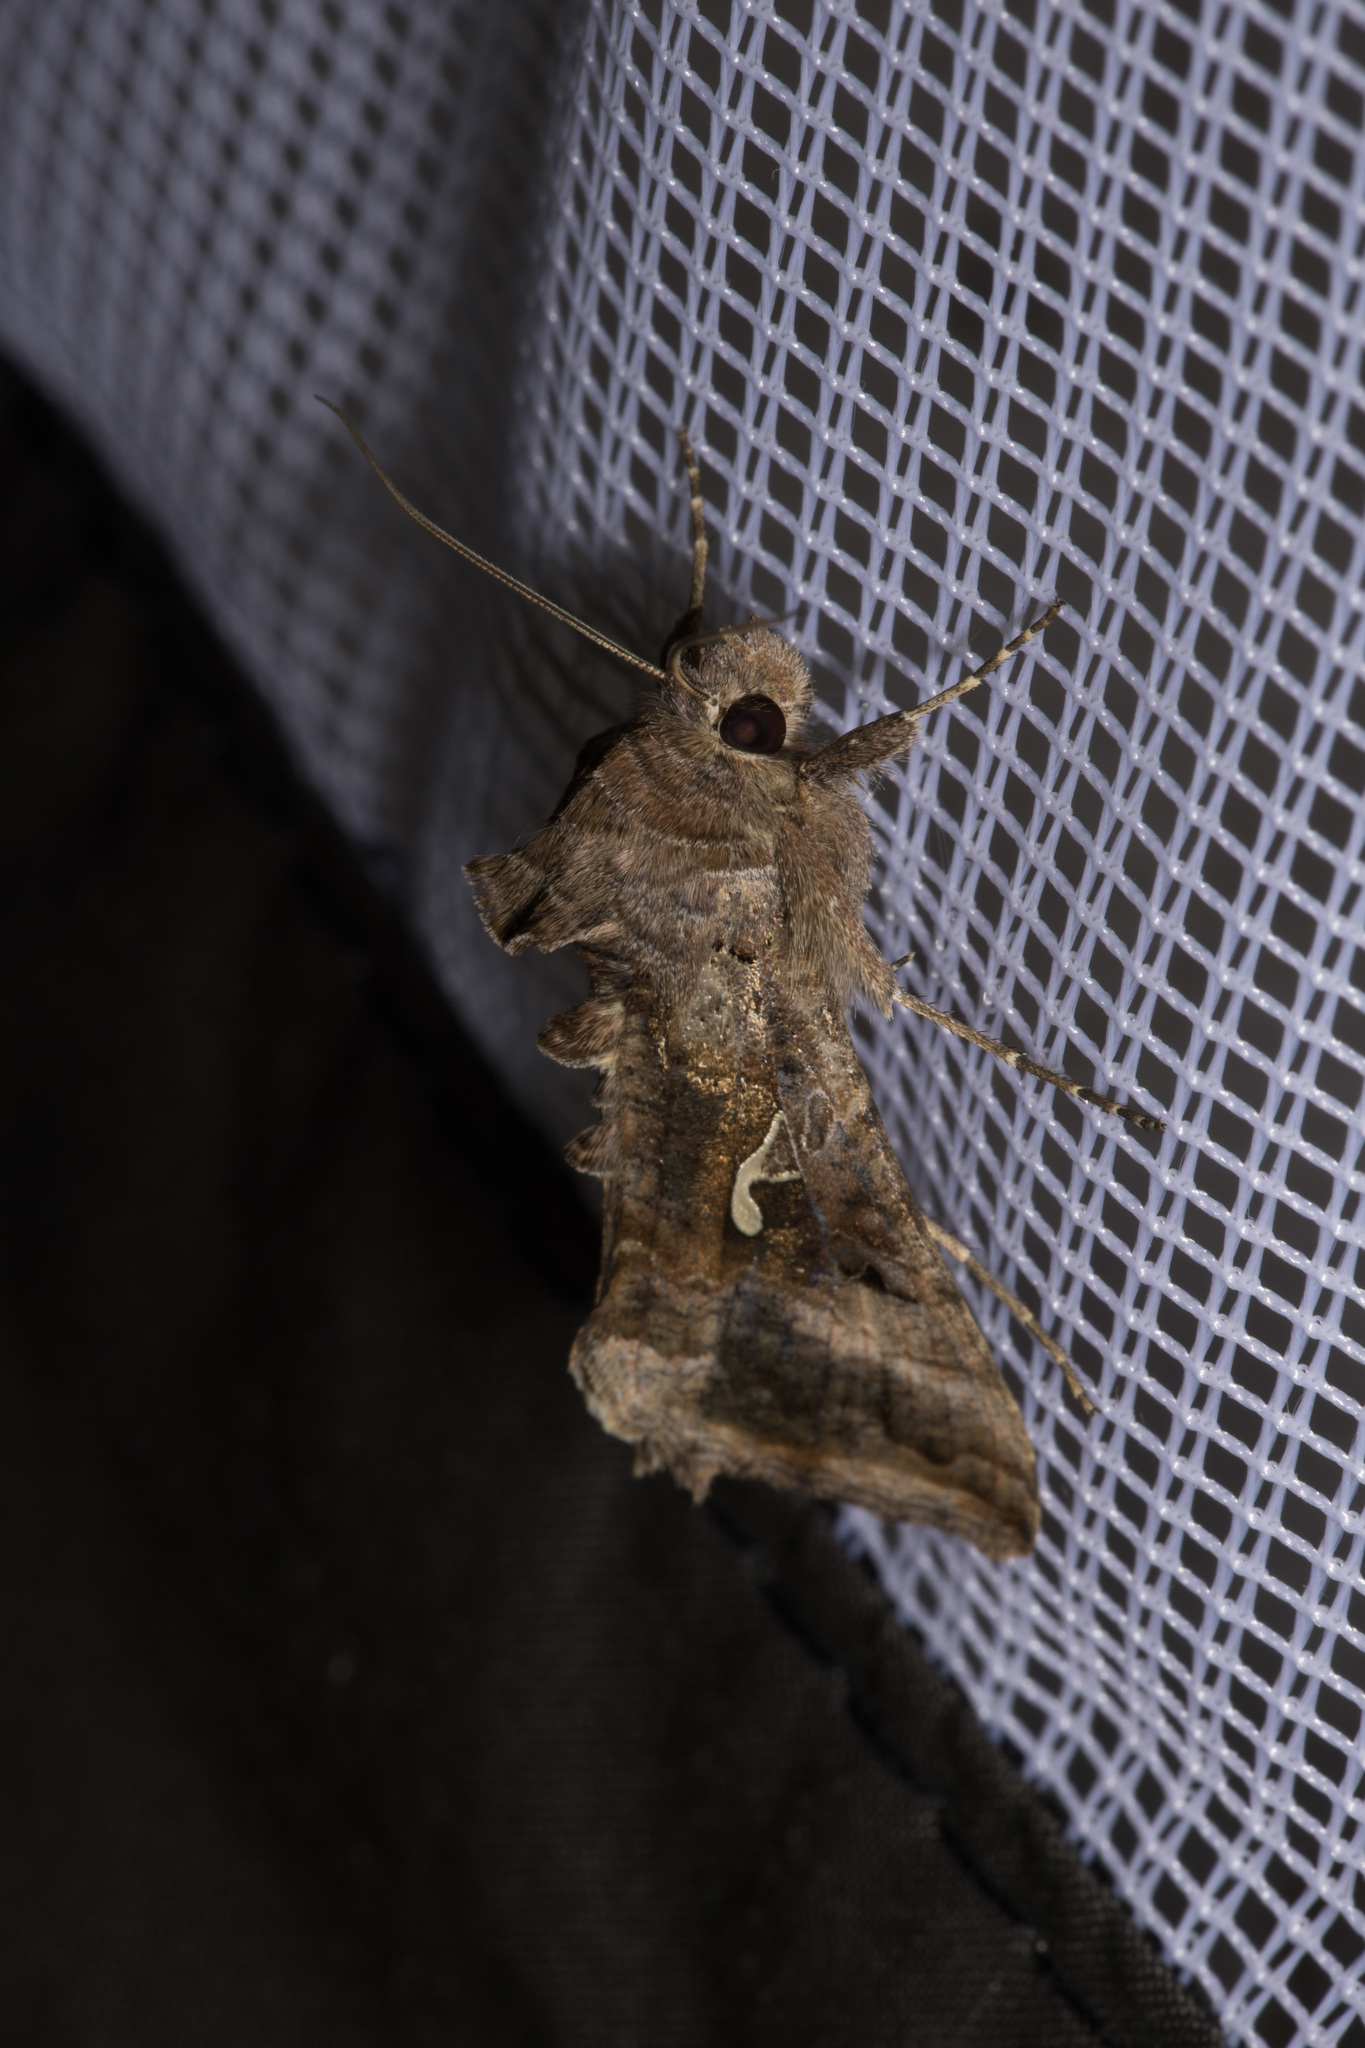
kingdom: Animalia
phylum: Arthropoda
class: Insecta
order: Lepidoptera
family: Noctuidae
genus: Autographa
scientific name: Autographa gamma
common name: Silver y
